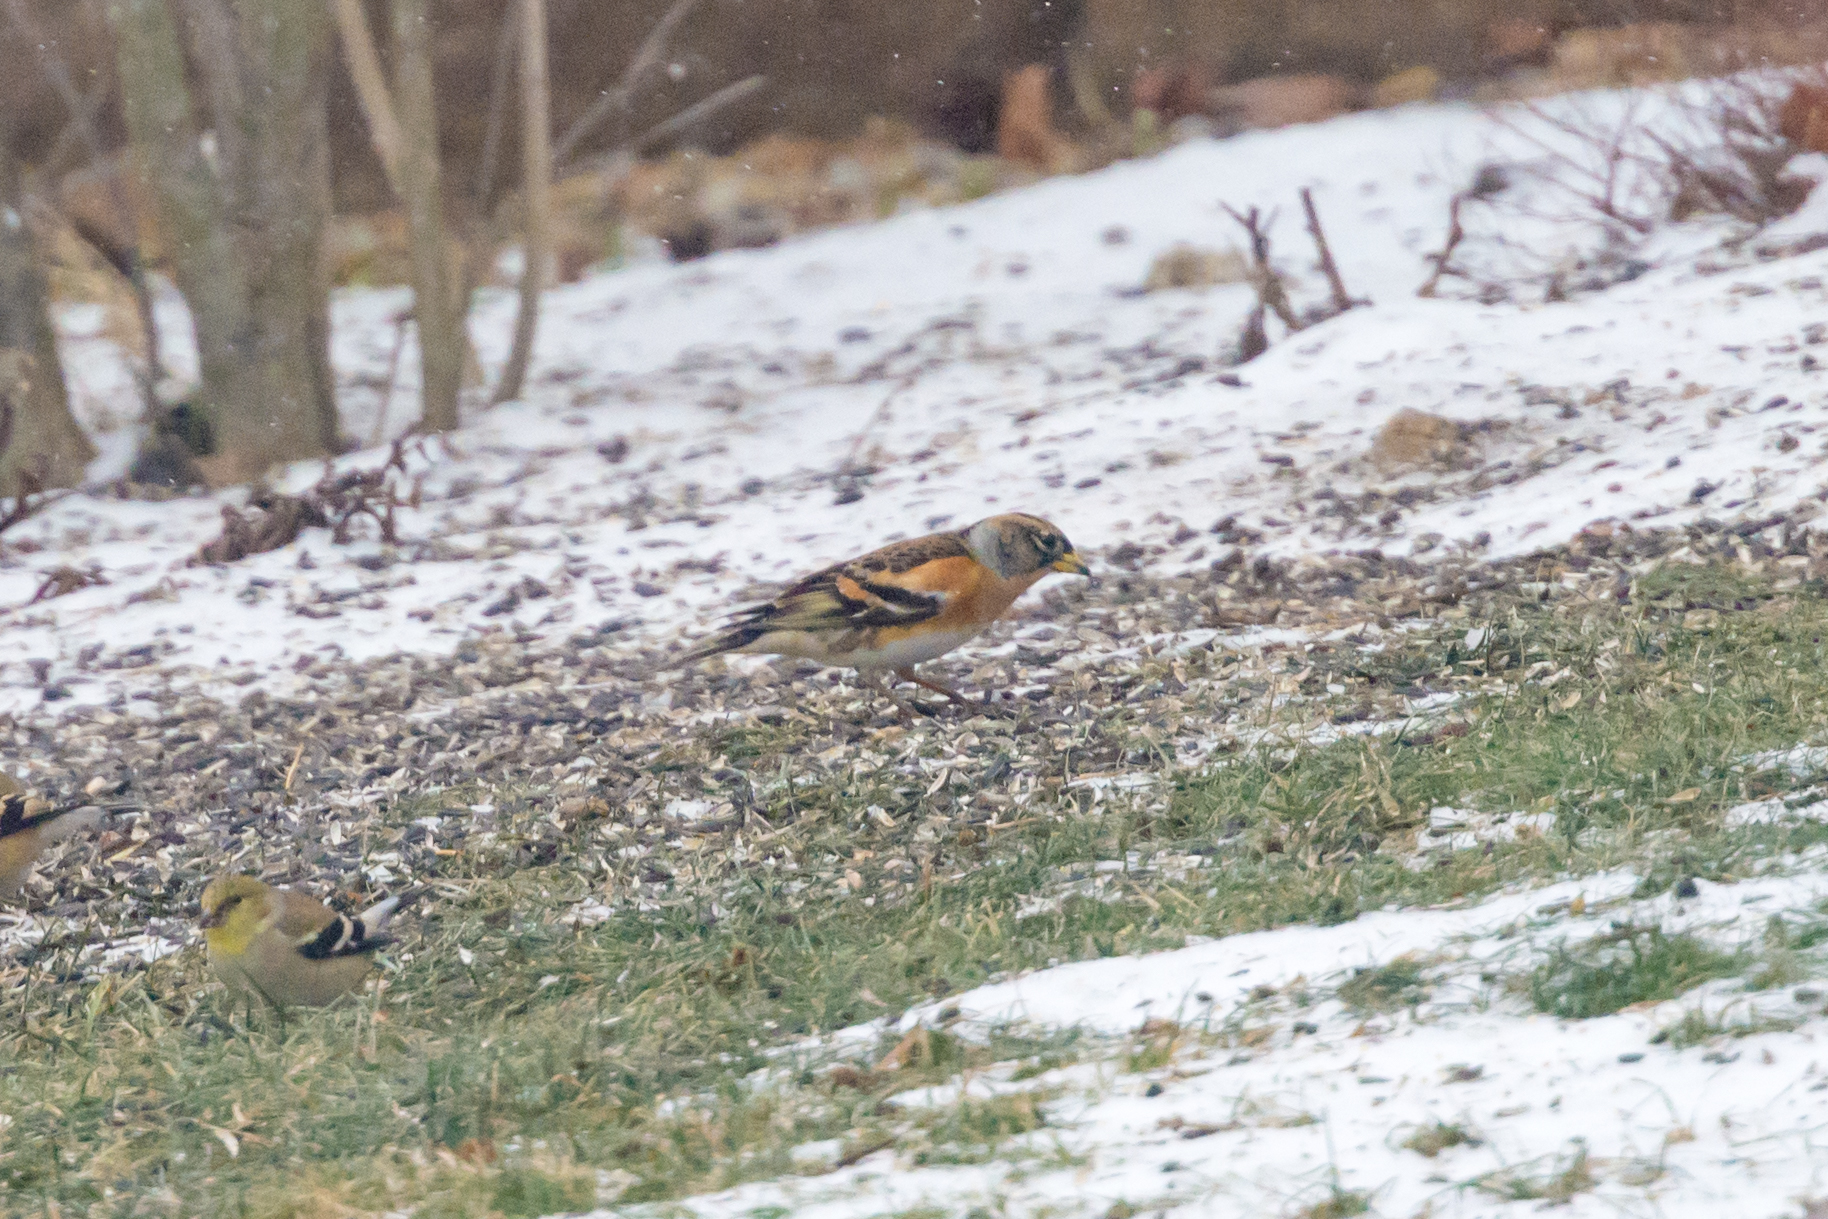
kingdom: Animalia
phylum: Chordata
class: Aves
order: Passeriformes
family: Fringillidae
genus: Fringilla
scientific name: Fringilla montifringilla
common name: Brambling
